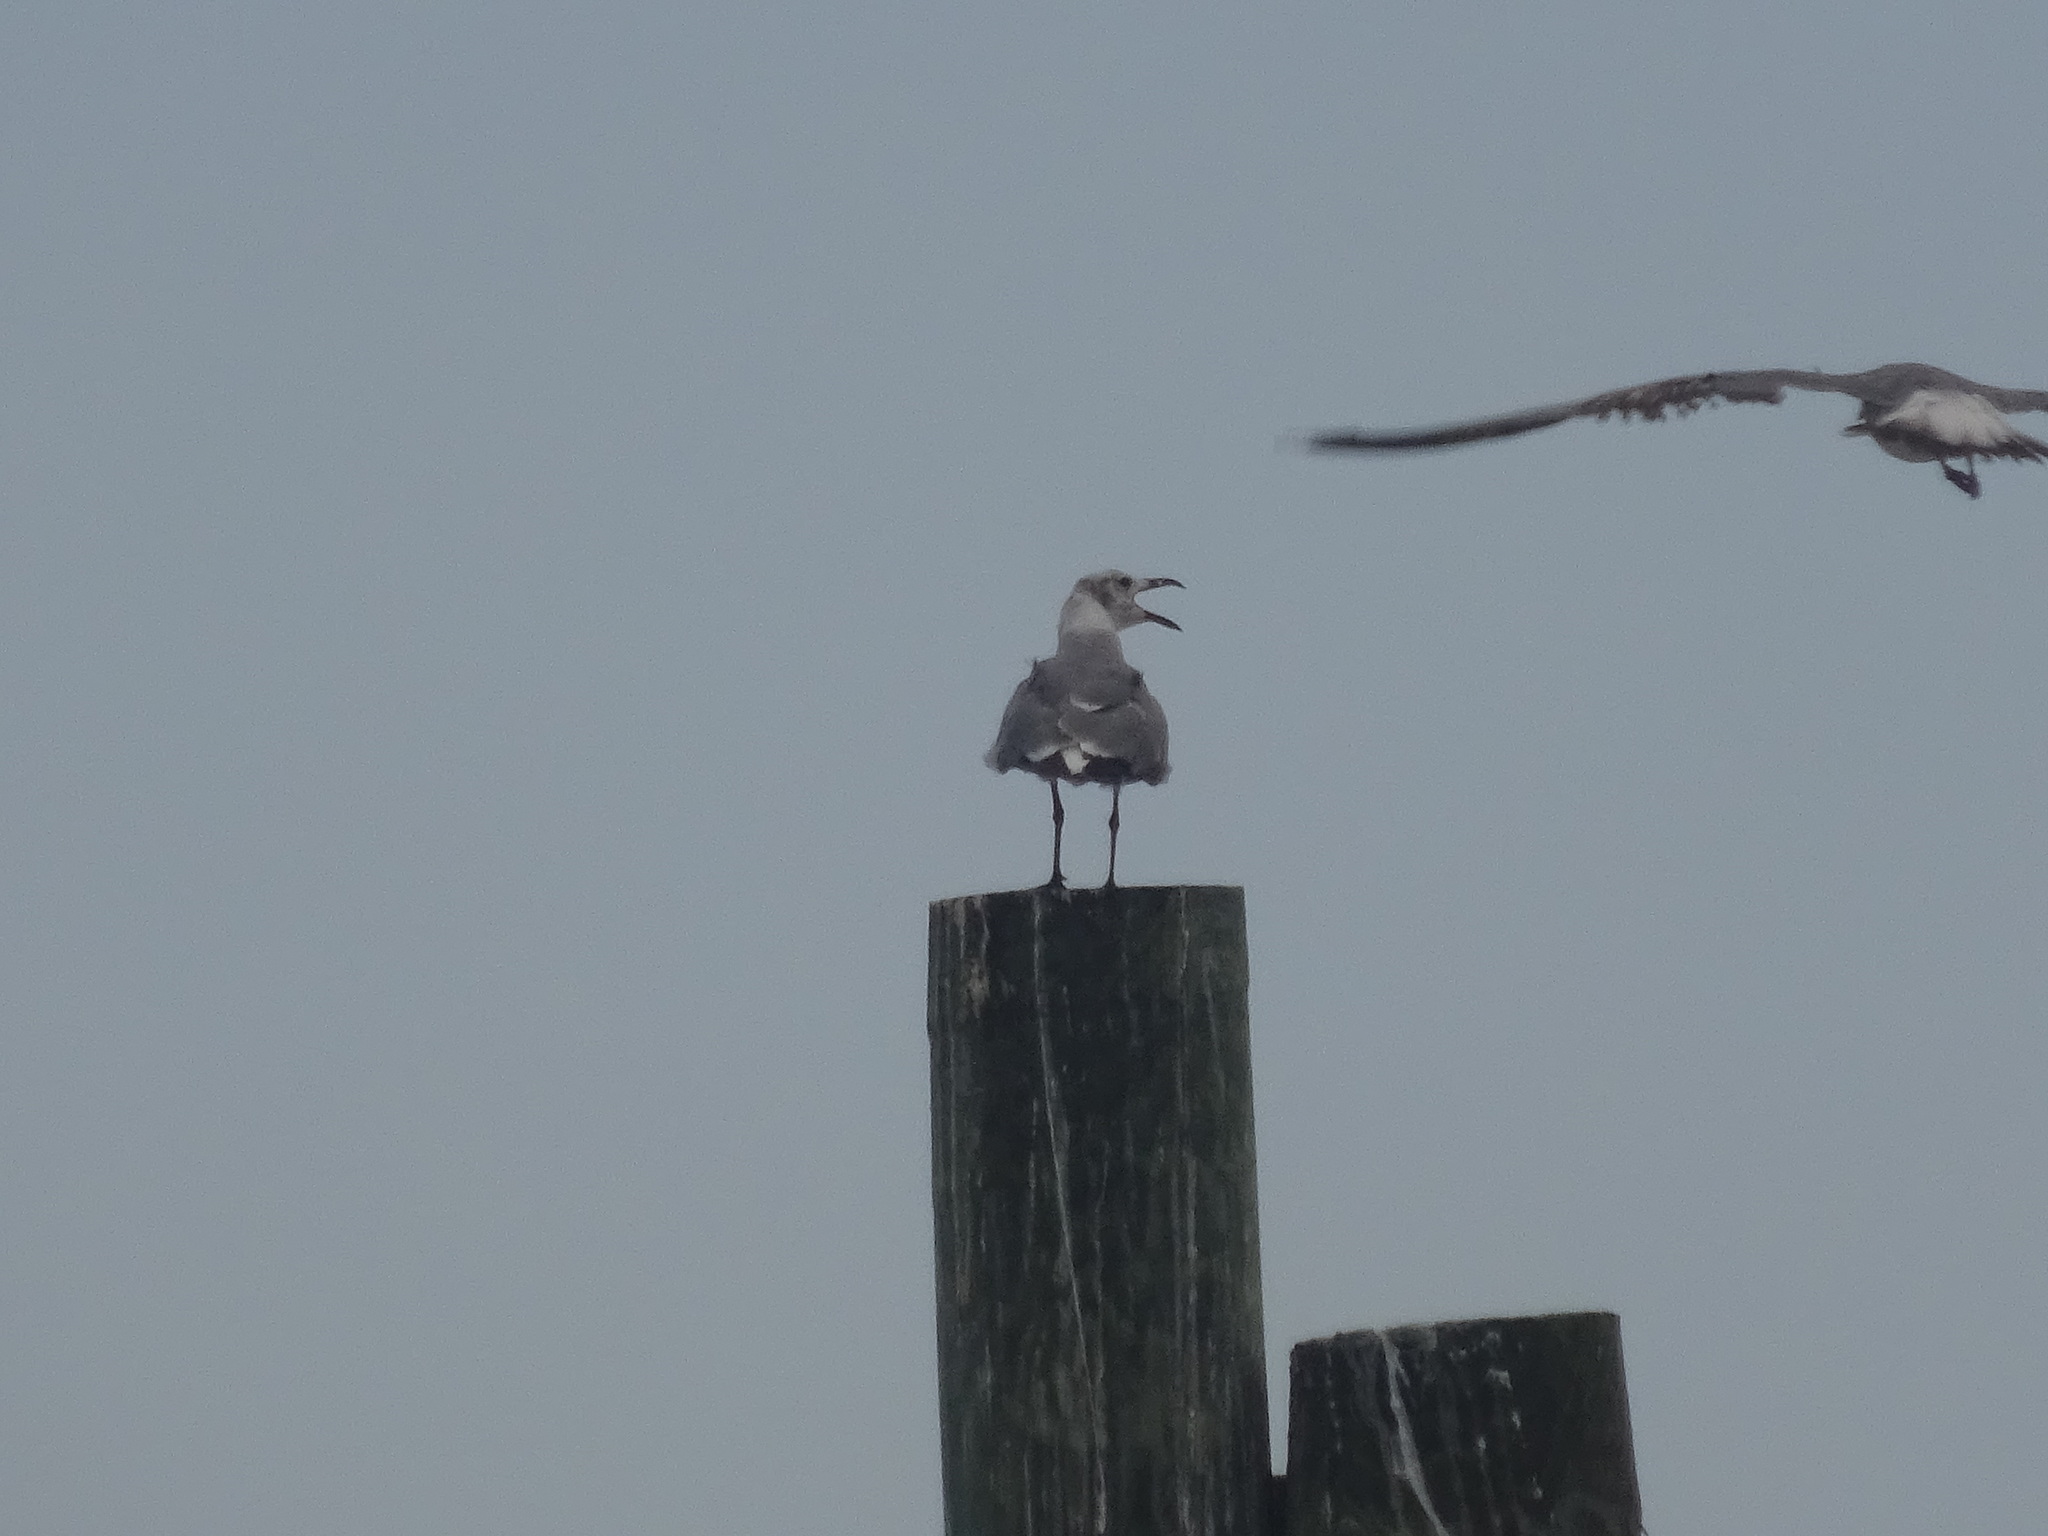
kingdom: Animalia
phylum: Chordata
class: Aves
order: Charadriiformes
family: Laridae
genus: Leucophaeus
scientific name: Leucophaeus atricilla
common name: Laughing gull
